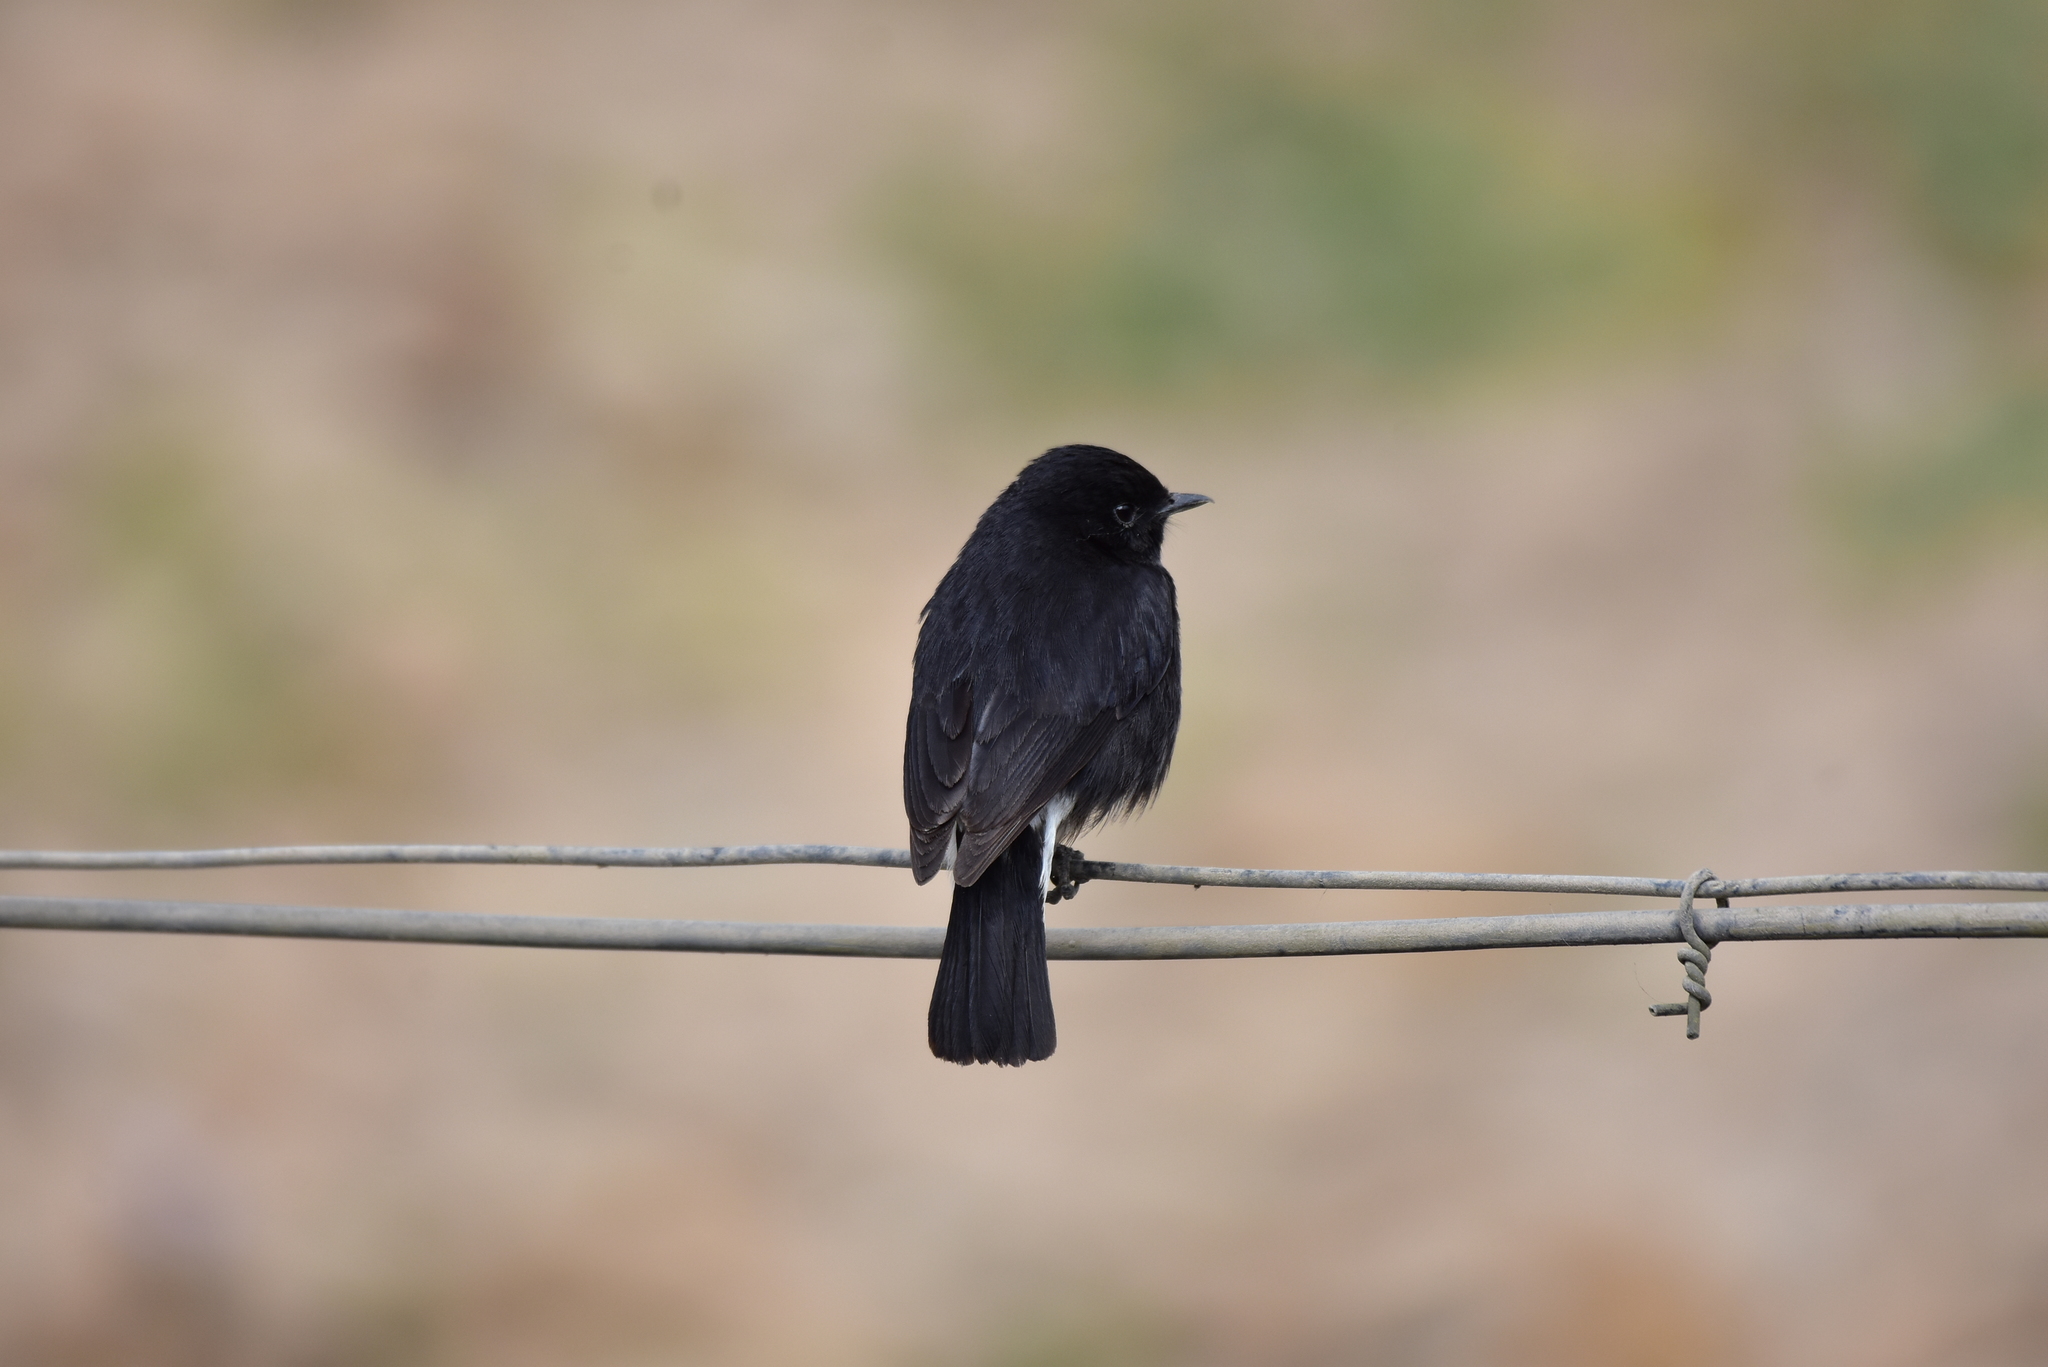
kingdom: Animalia
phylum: Chordata
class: Aves
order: Passeriformes
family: Muscicapidae
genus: Saxicola
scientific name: Saxicola caprata
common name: Pied bush chat
